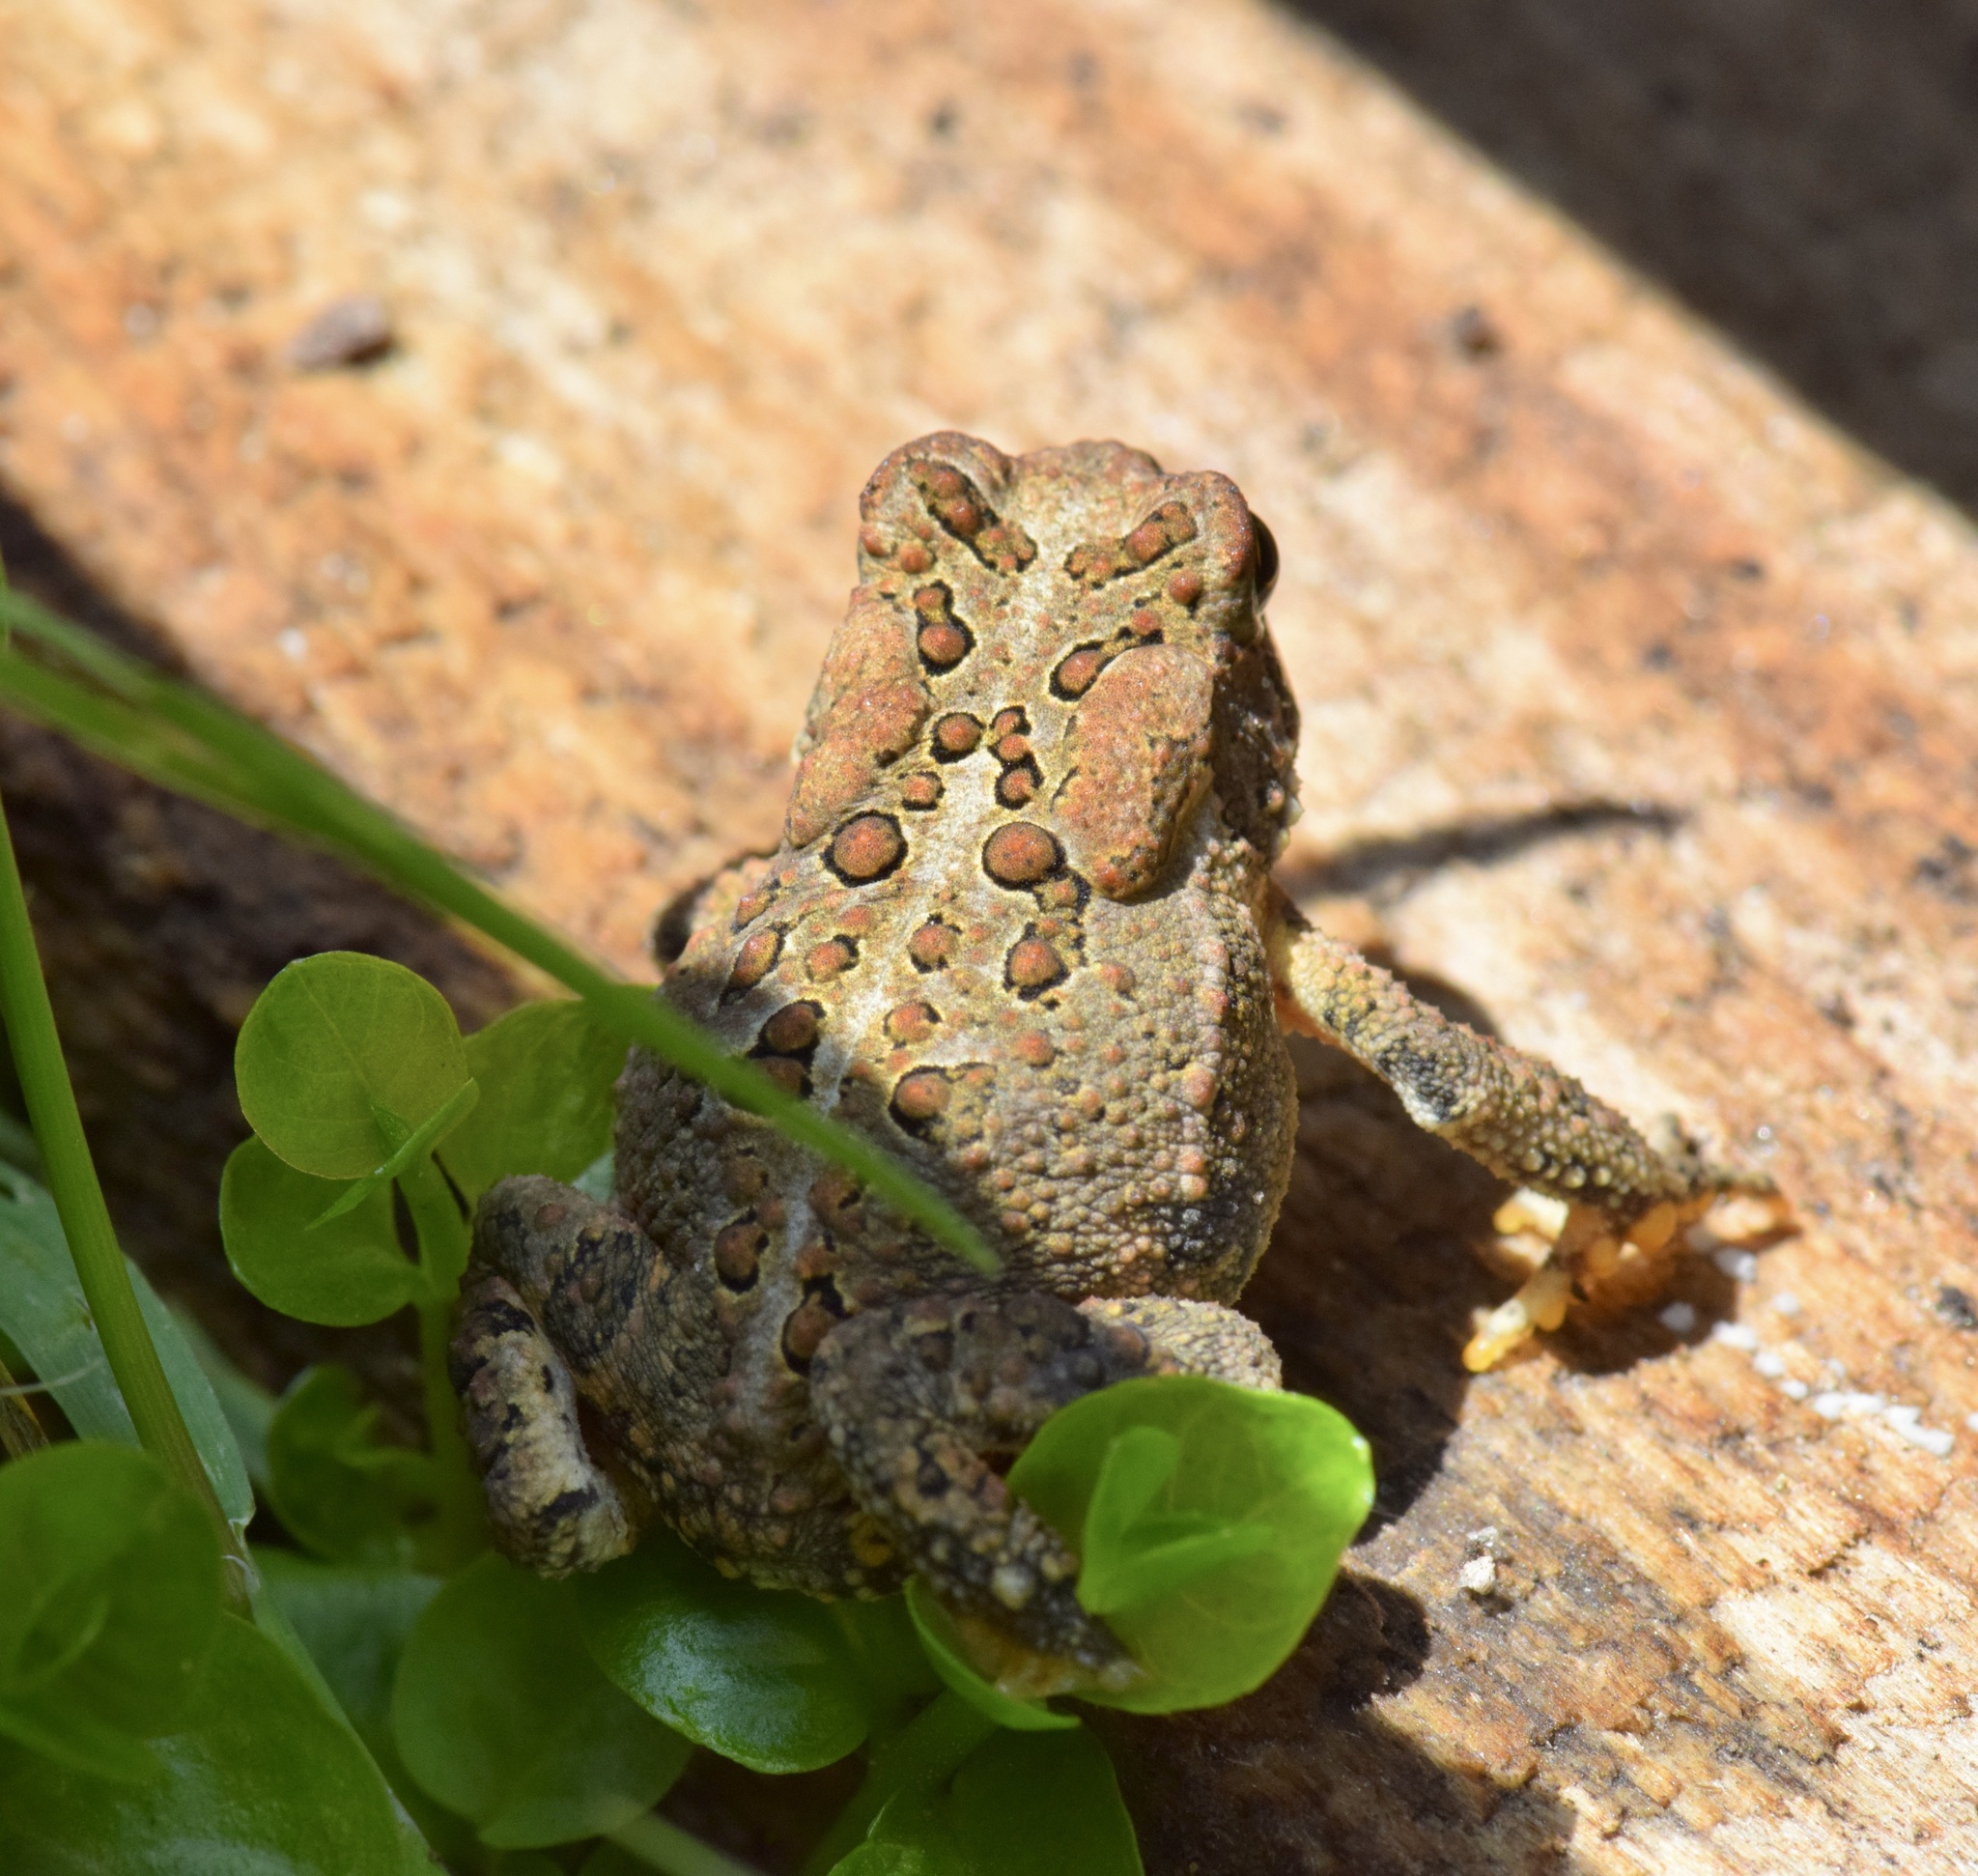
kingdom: Animalia
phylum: Chordata
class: Amphibia
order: Anura
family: Bufonidae
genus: Anaxyrus
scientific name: Anaxyrus americanus
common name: American toad
